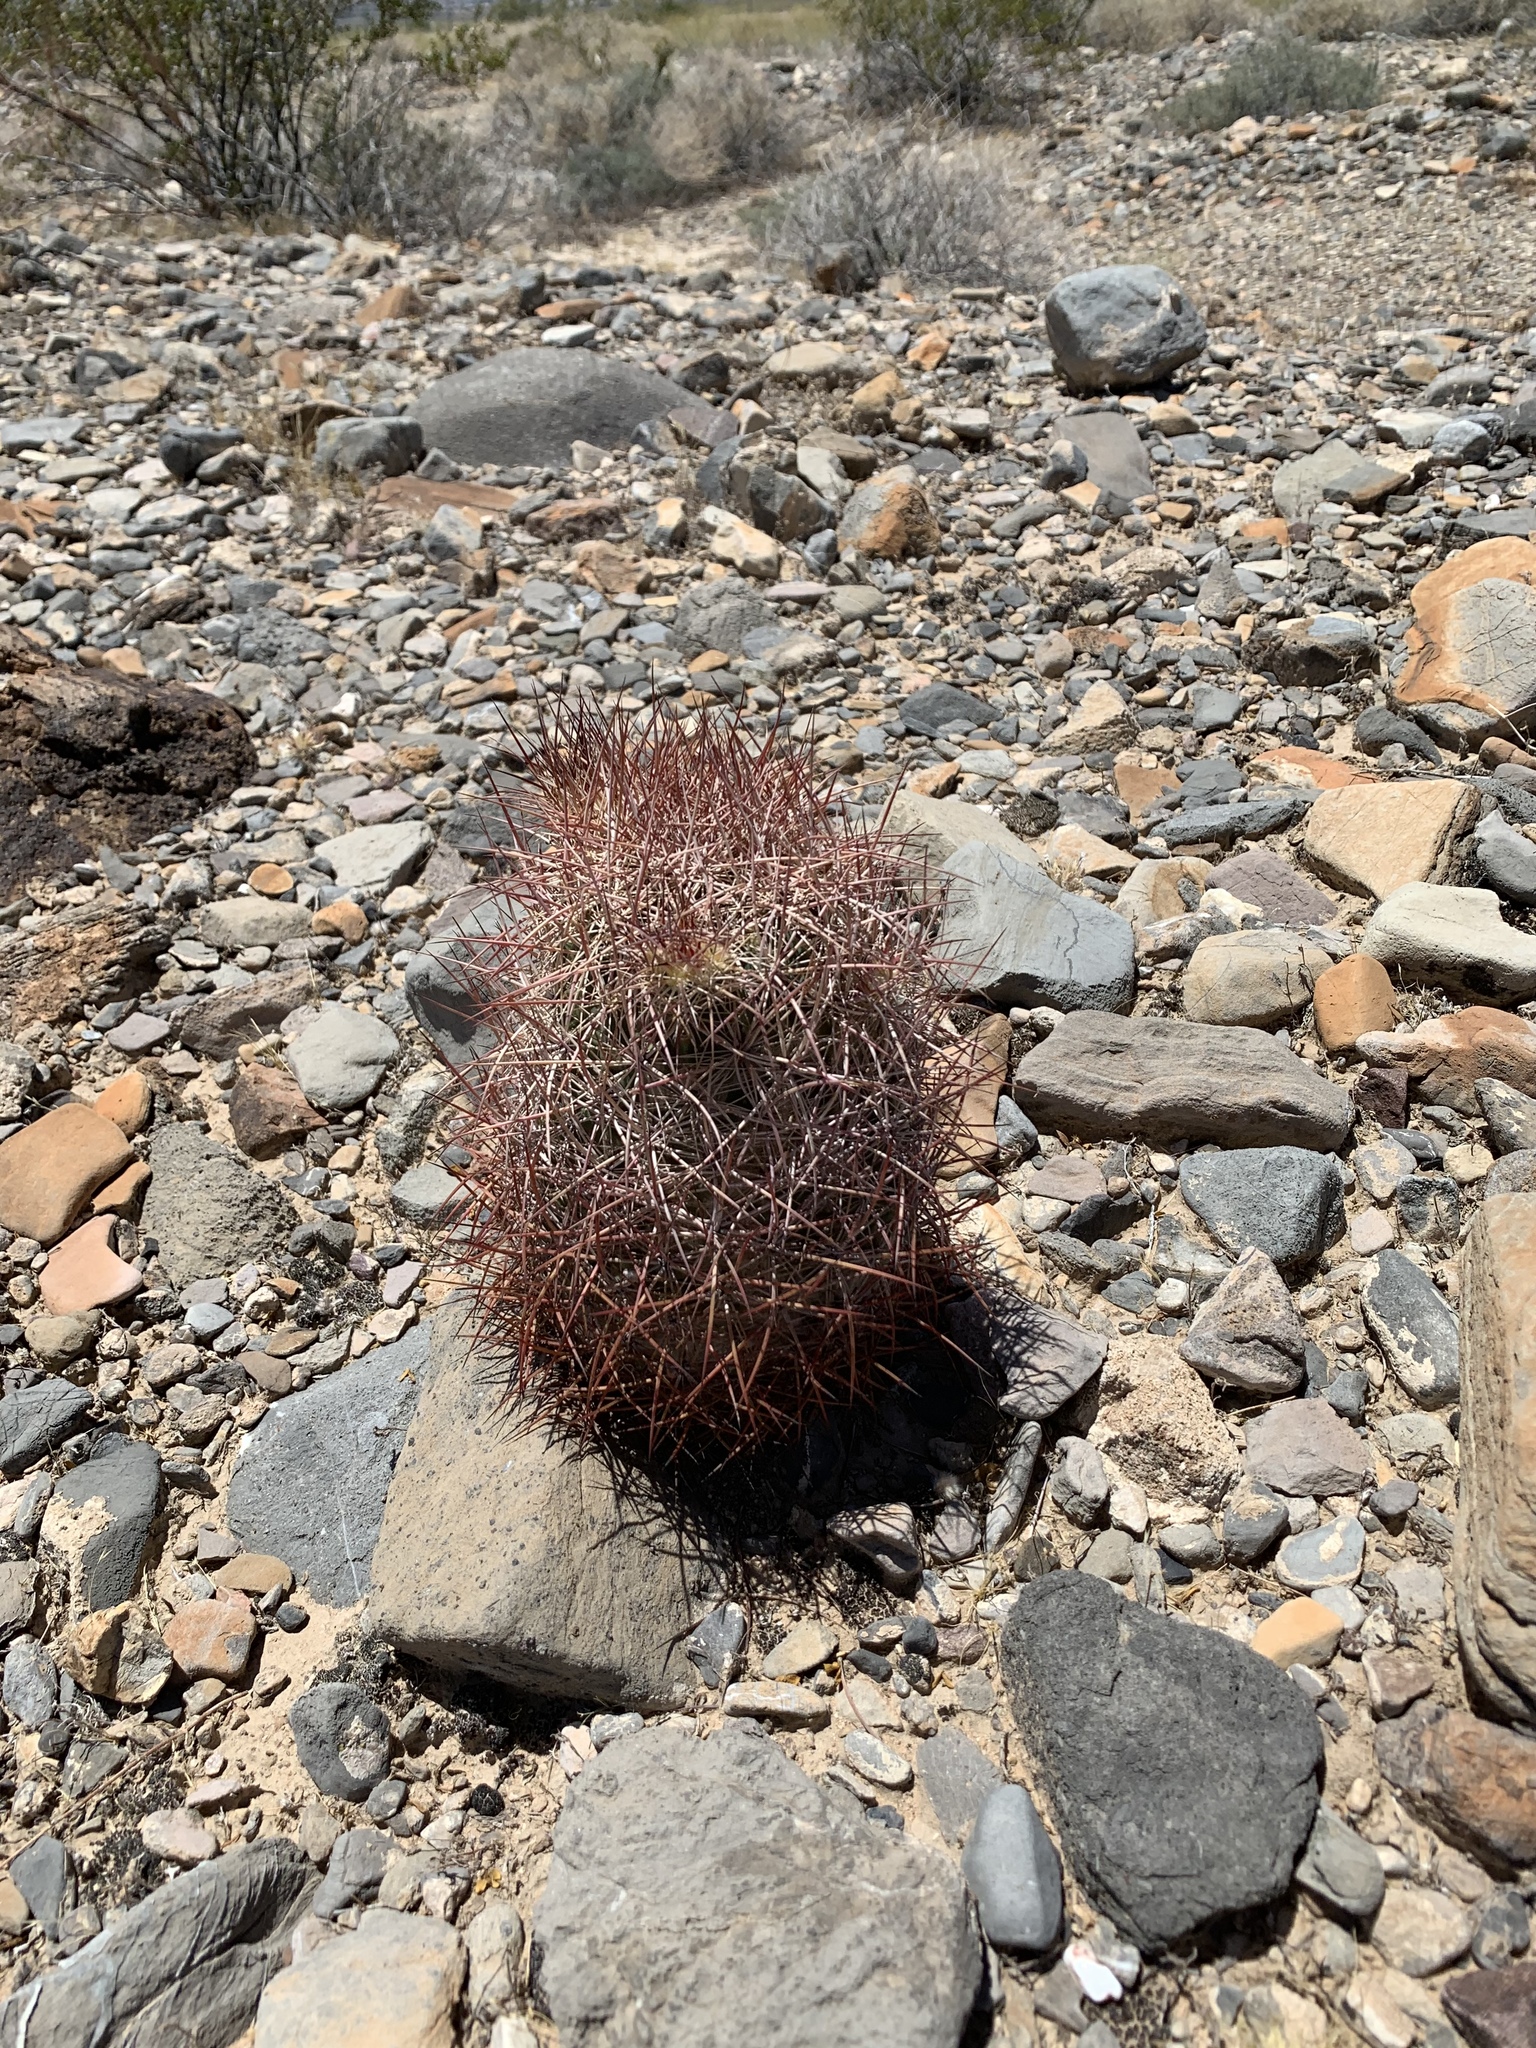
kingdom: Plantae
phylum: Tracheophyta
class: Magnoliopsida
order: Caryophyllales
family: Cactaceae
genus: Sclerocactus
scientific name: Sclerocactus johnsonii
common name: Eight-spine fishhook cactus
